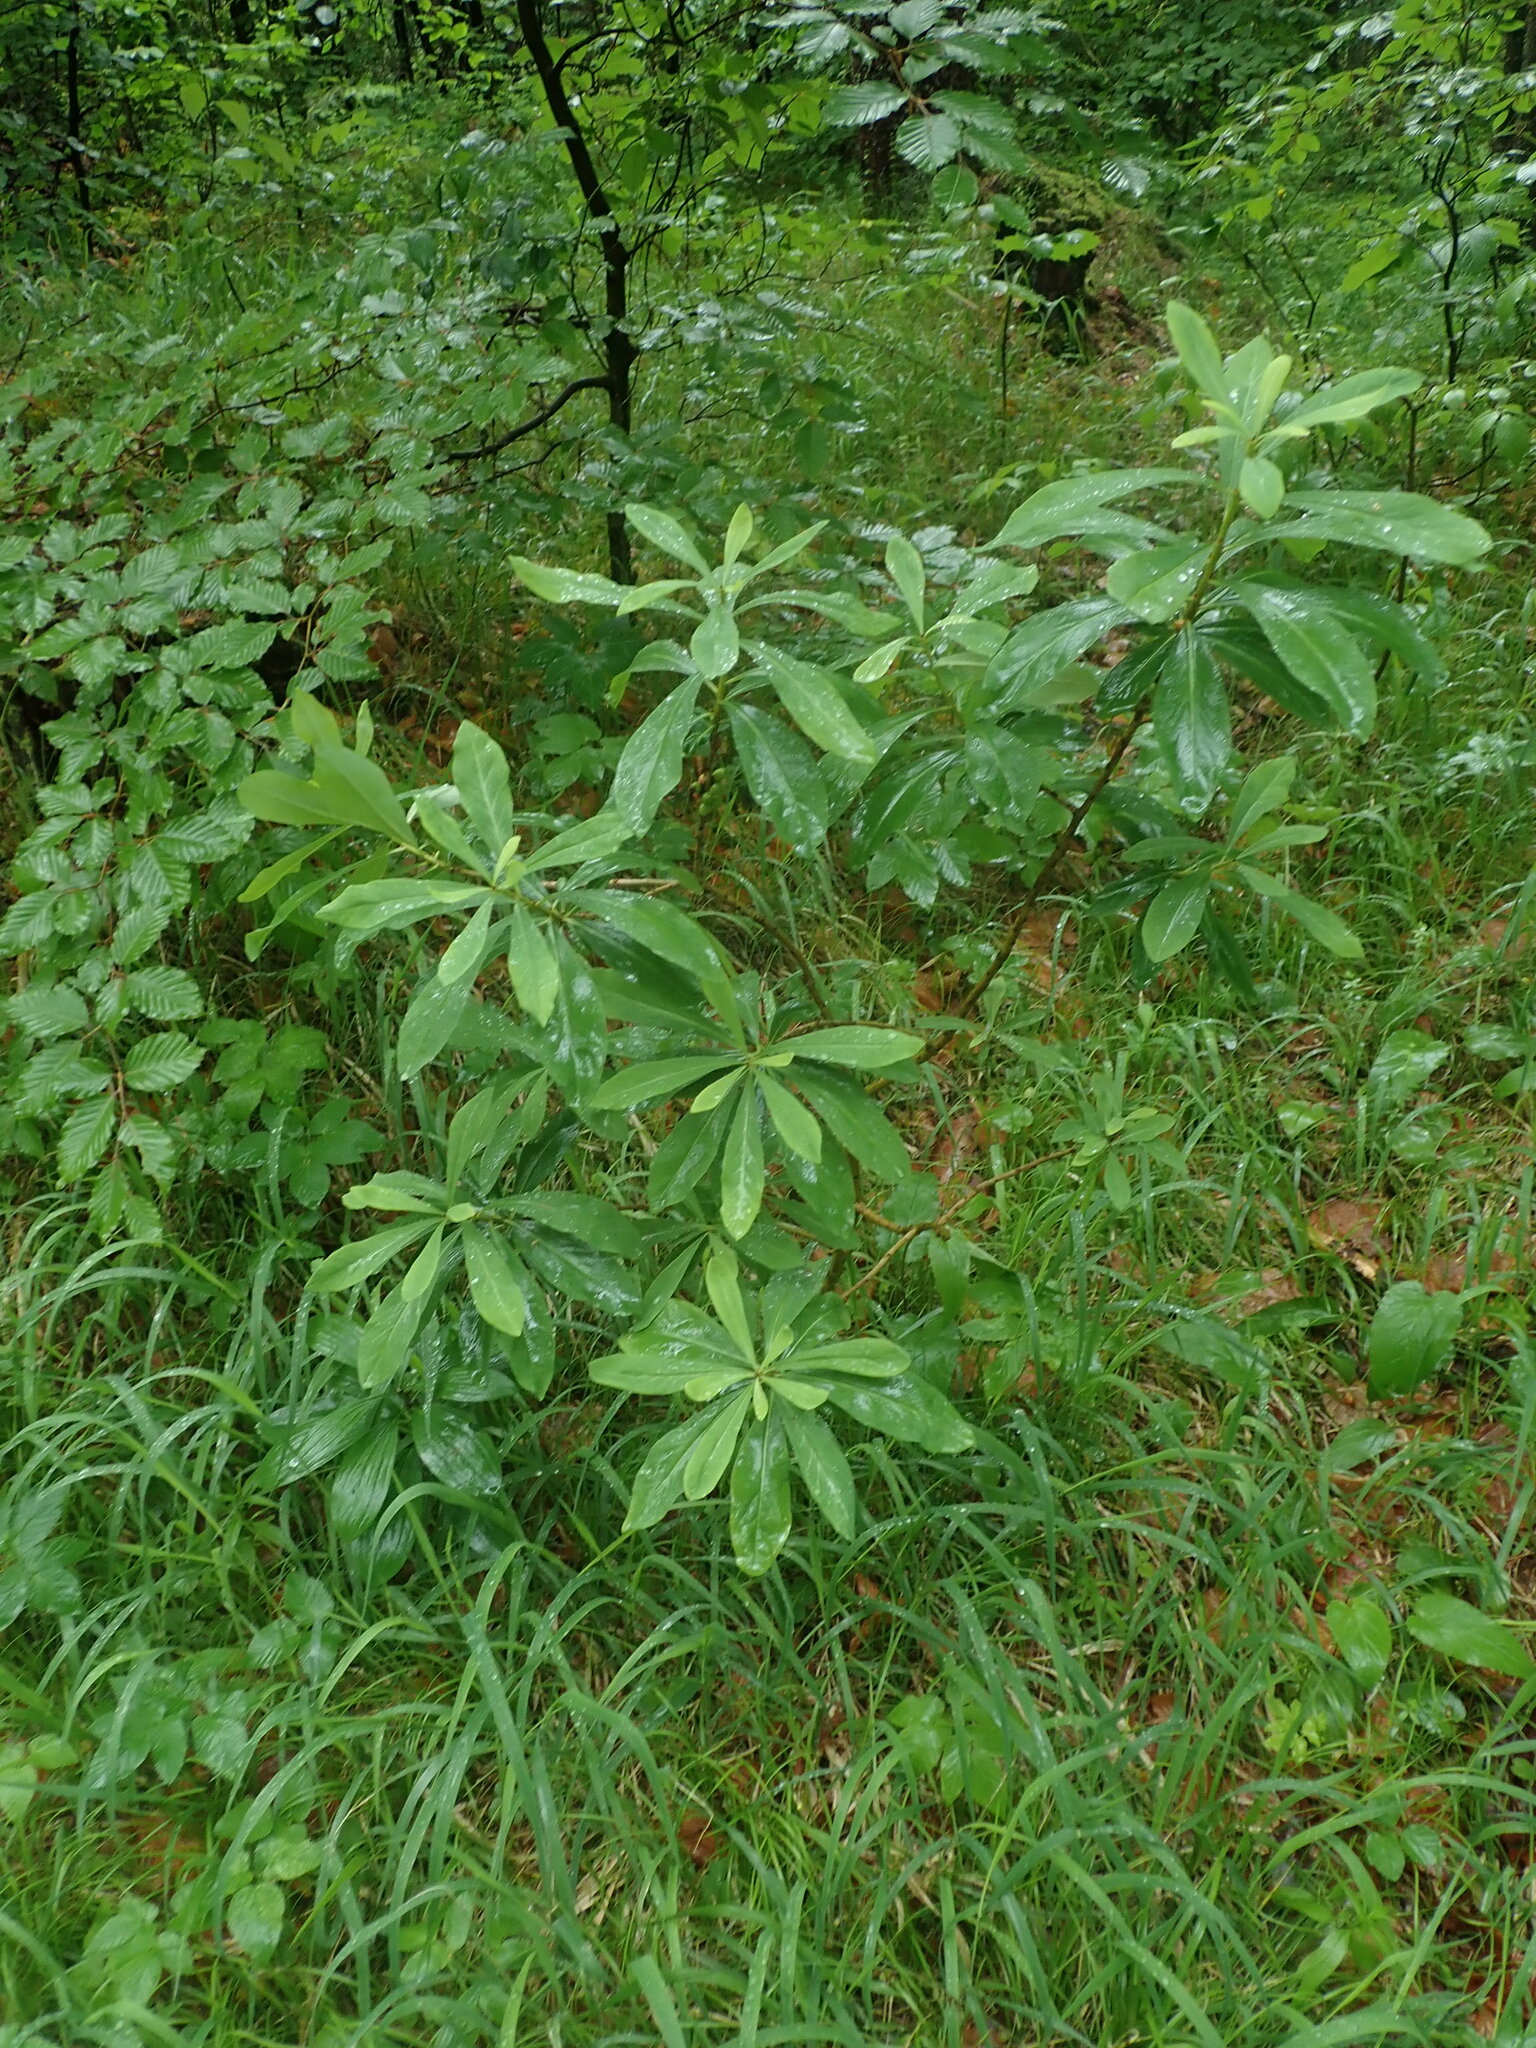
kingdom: Plantae
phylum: Tracheophyta
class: Magnoliopsida
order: Malvales
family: Thymelaeaceae
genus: Daphne
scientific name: Daphne mezereum
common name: Mezereon
